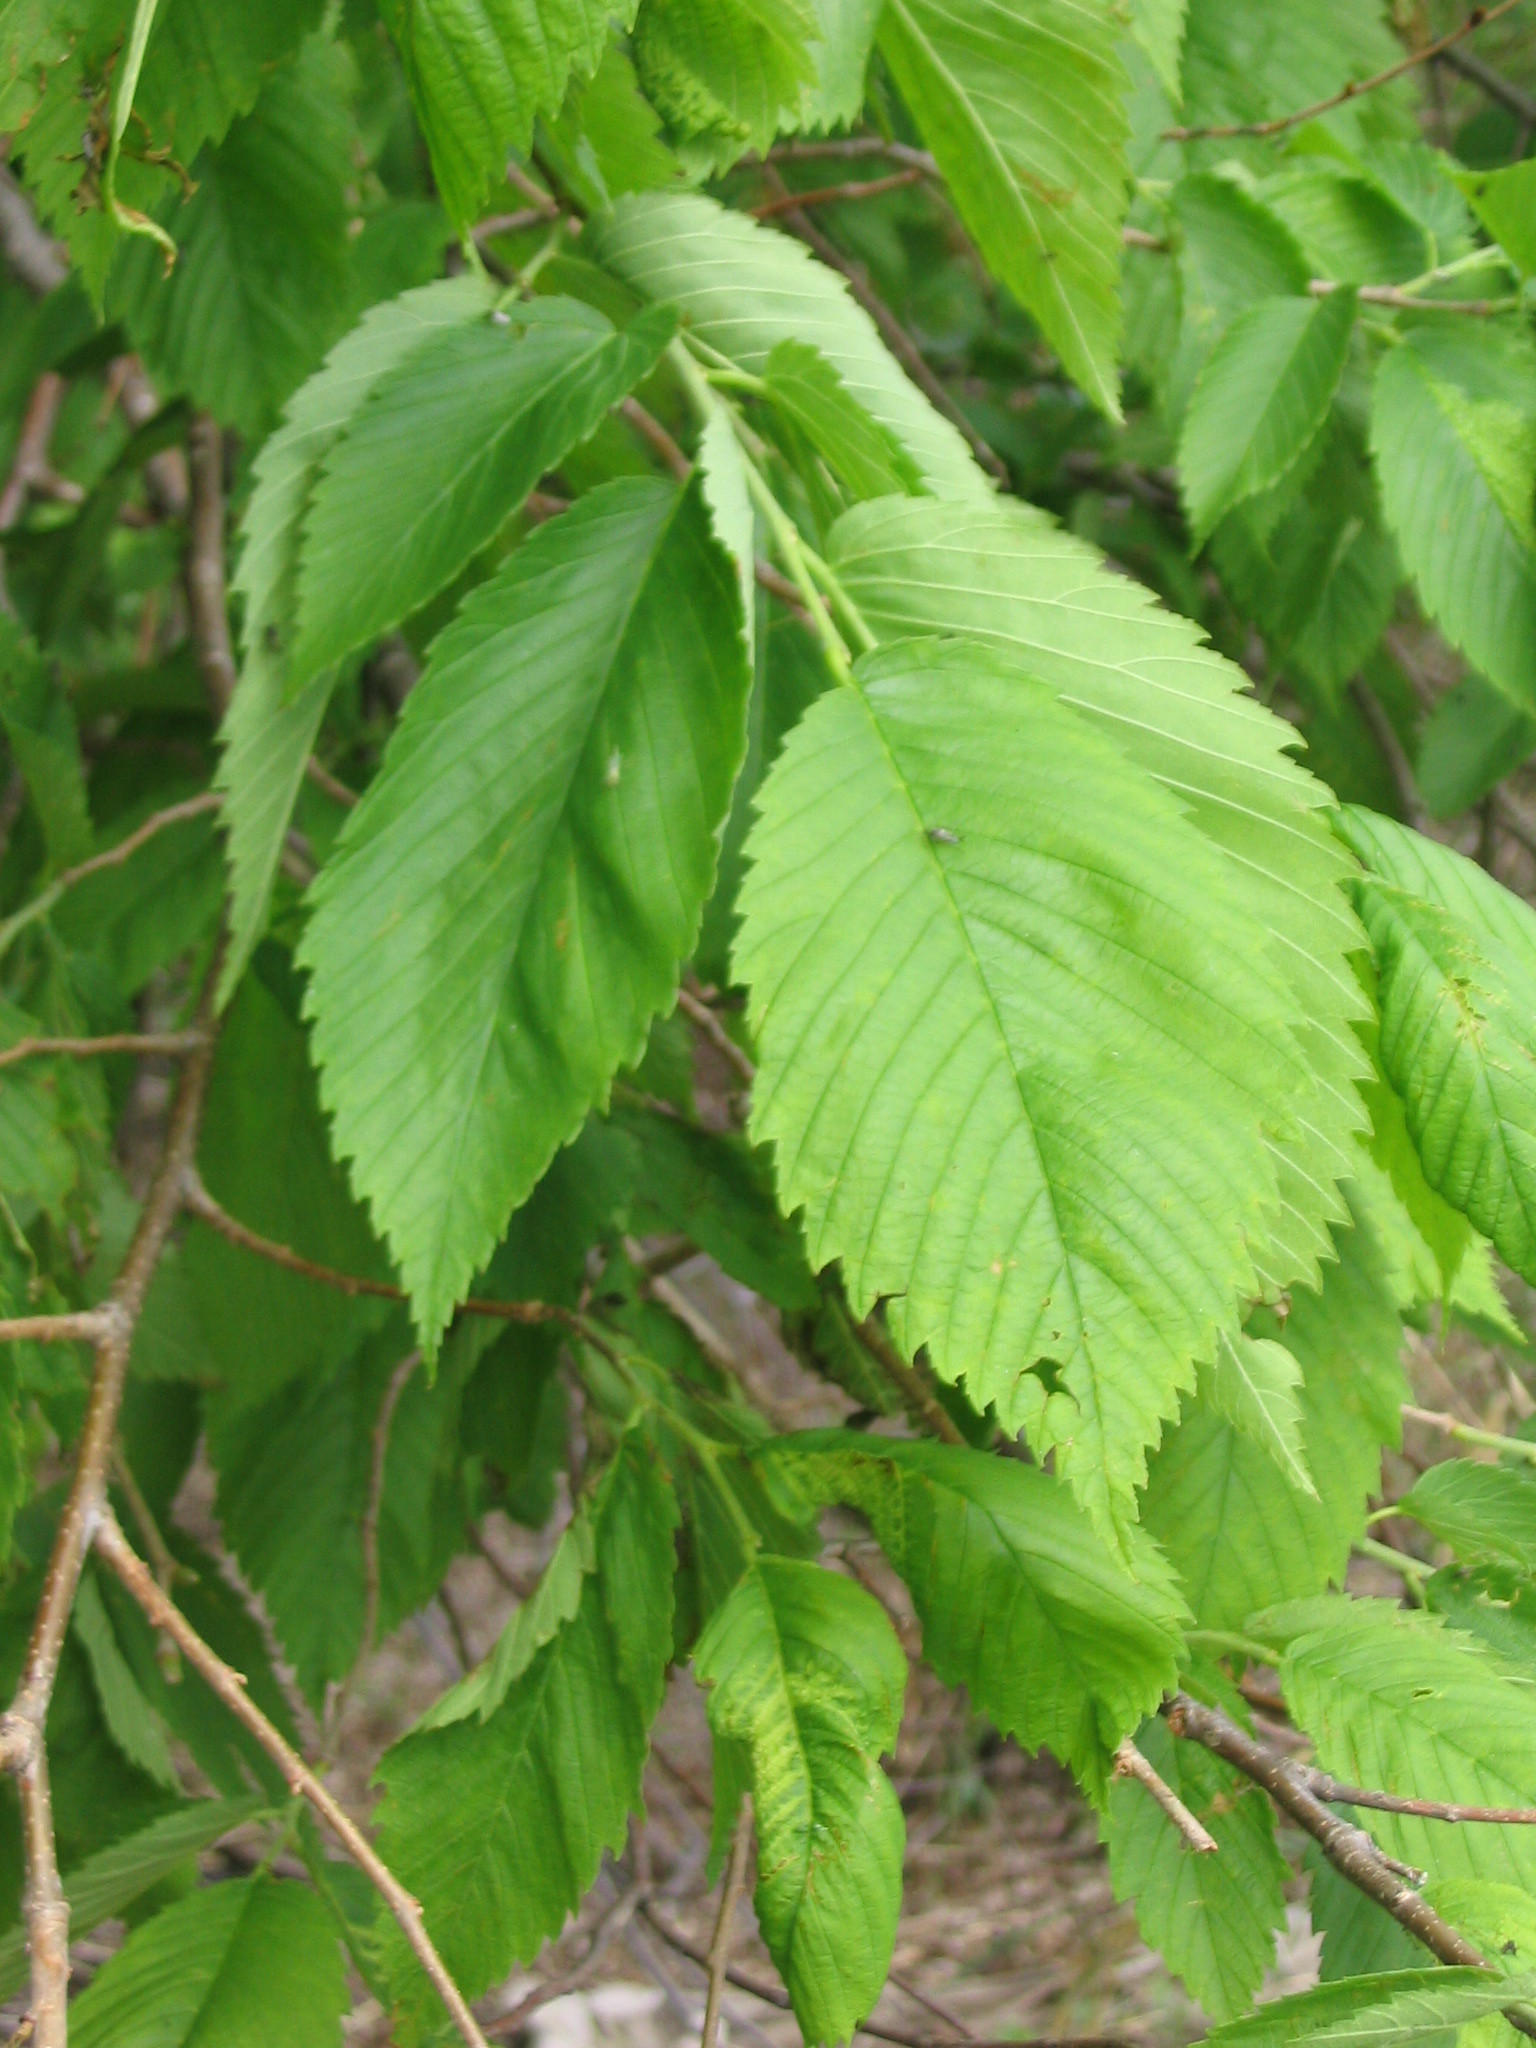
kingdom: Plantae
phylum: Tracheophyta
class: Magnoliopsida
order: Rosales
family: Ulmaceae
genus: Ulmus
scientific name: Ulmus americana
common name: American elm
